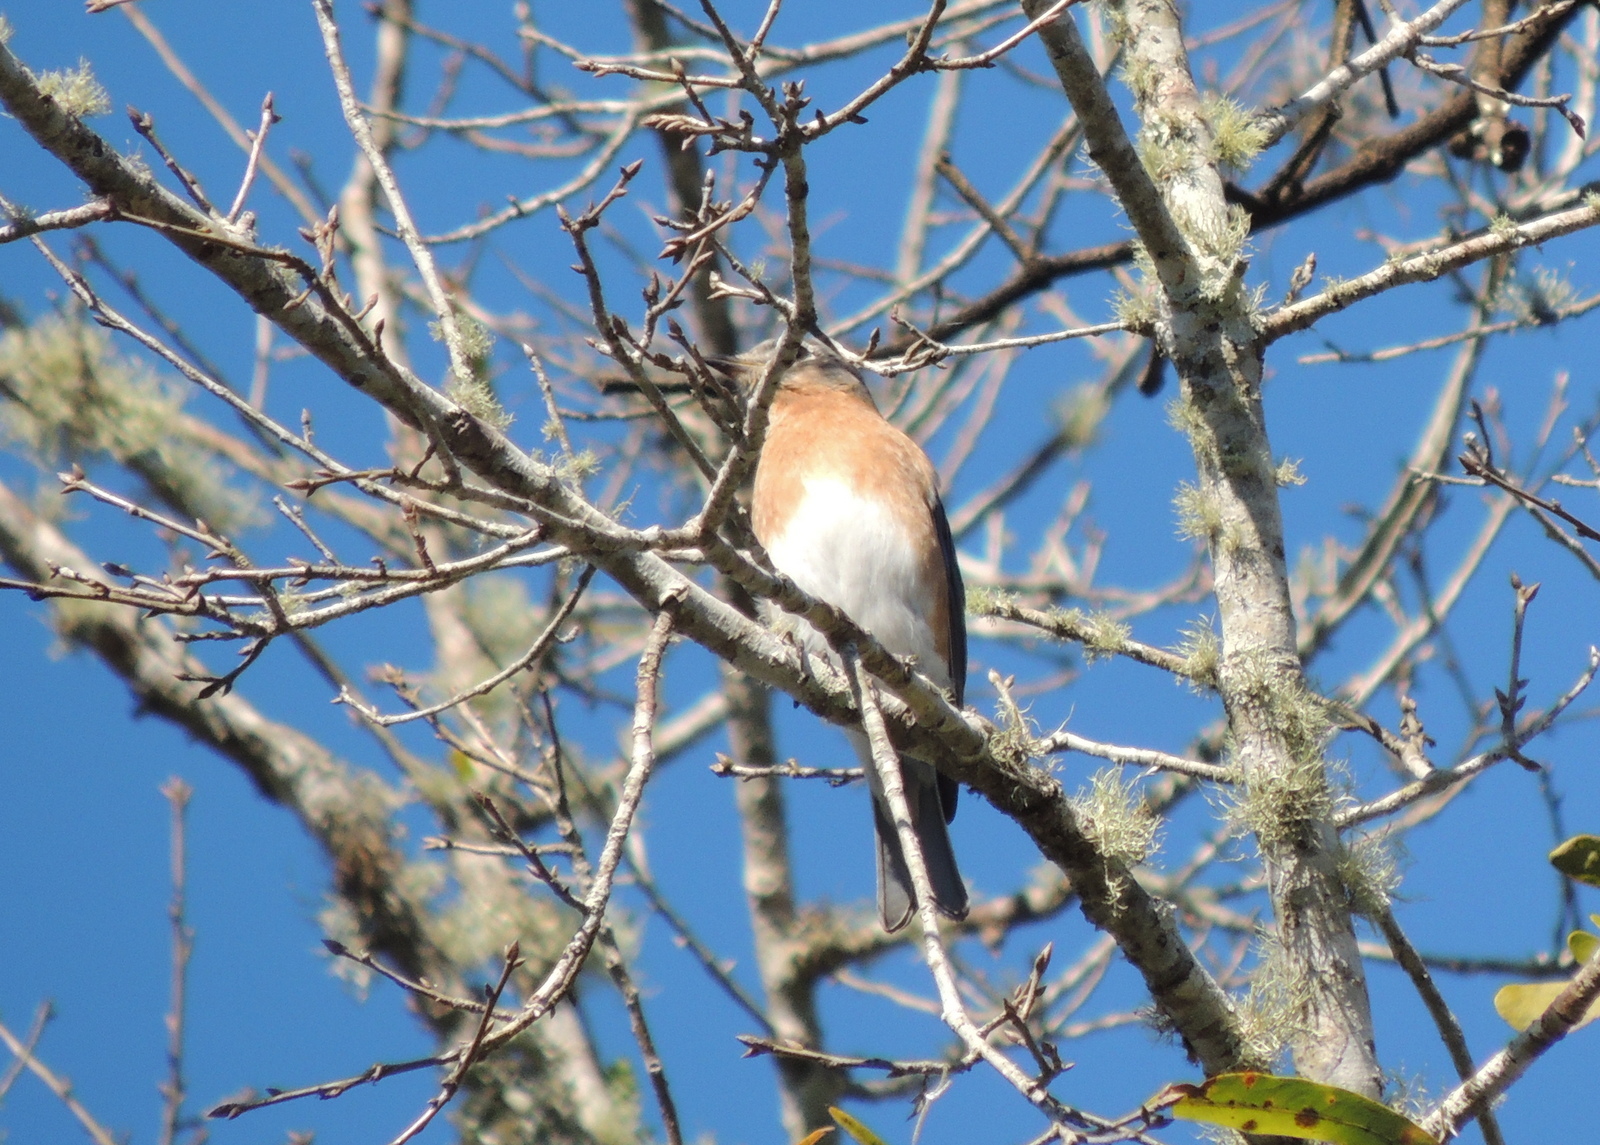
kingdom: Animalia
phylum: Chordata
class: Aves
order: Passeriformes
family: Turdidae
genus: Sialia
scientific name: Sialia sialis
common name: Eastern bluebird
